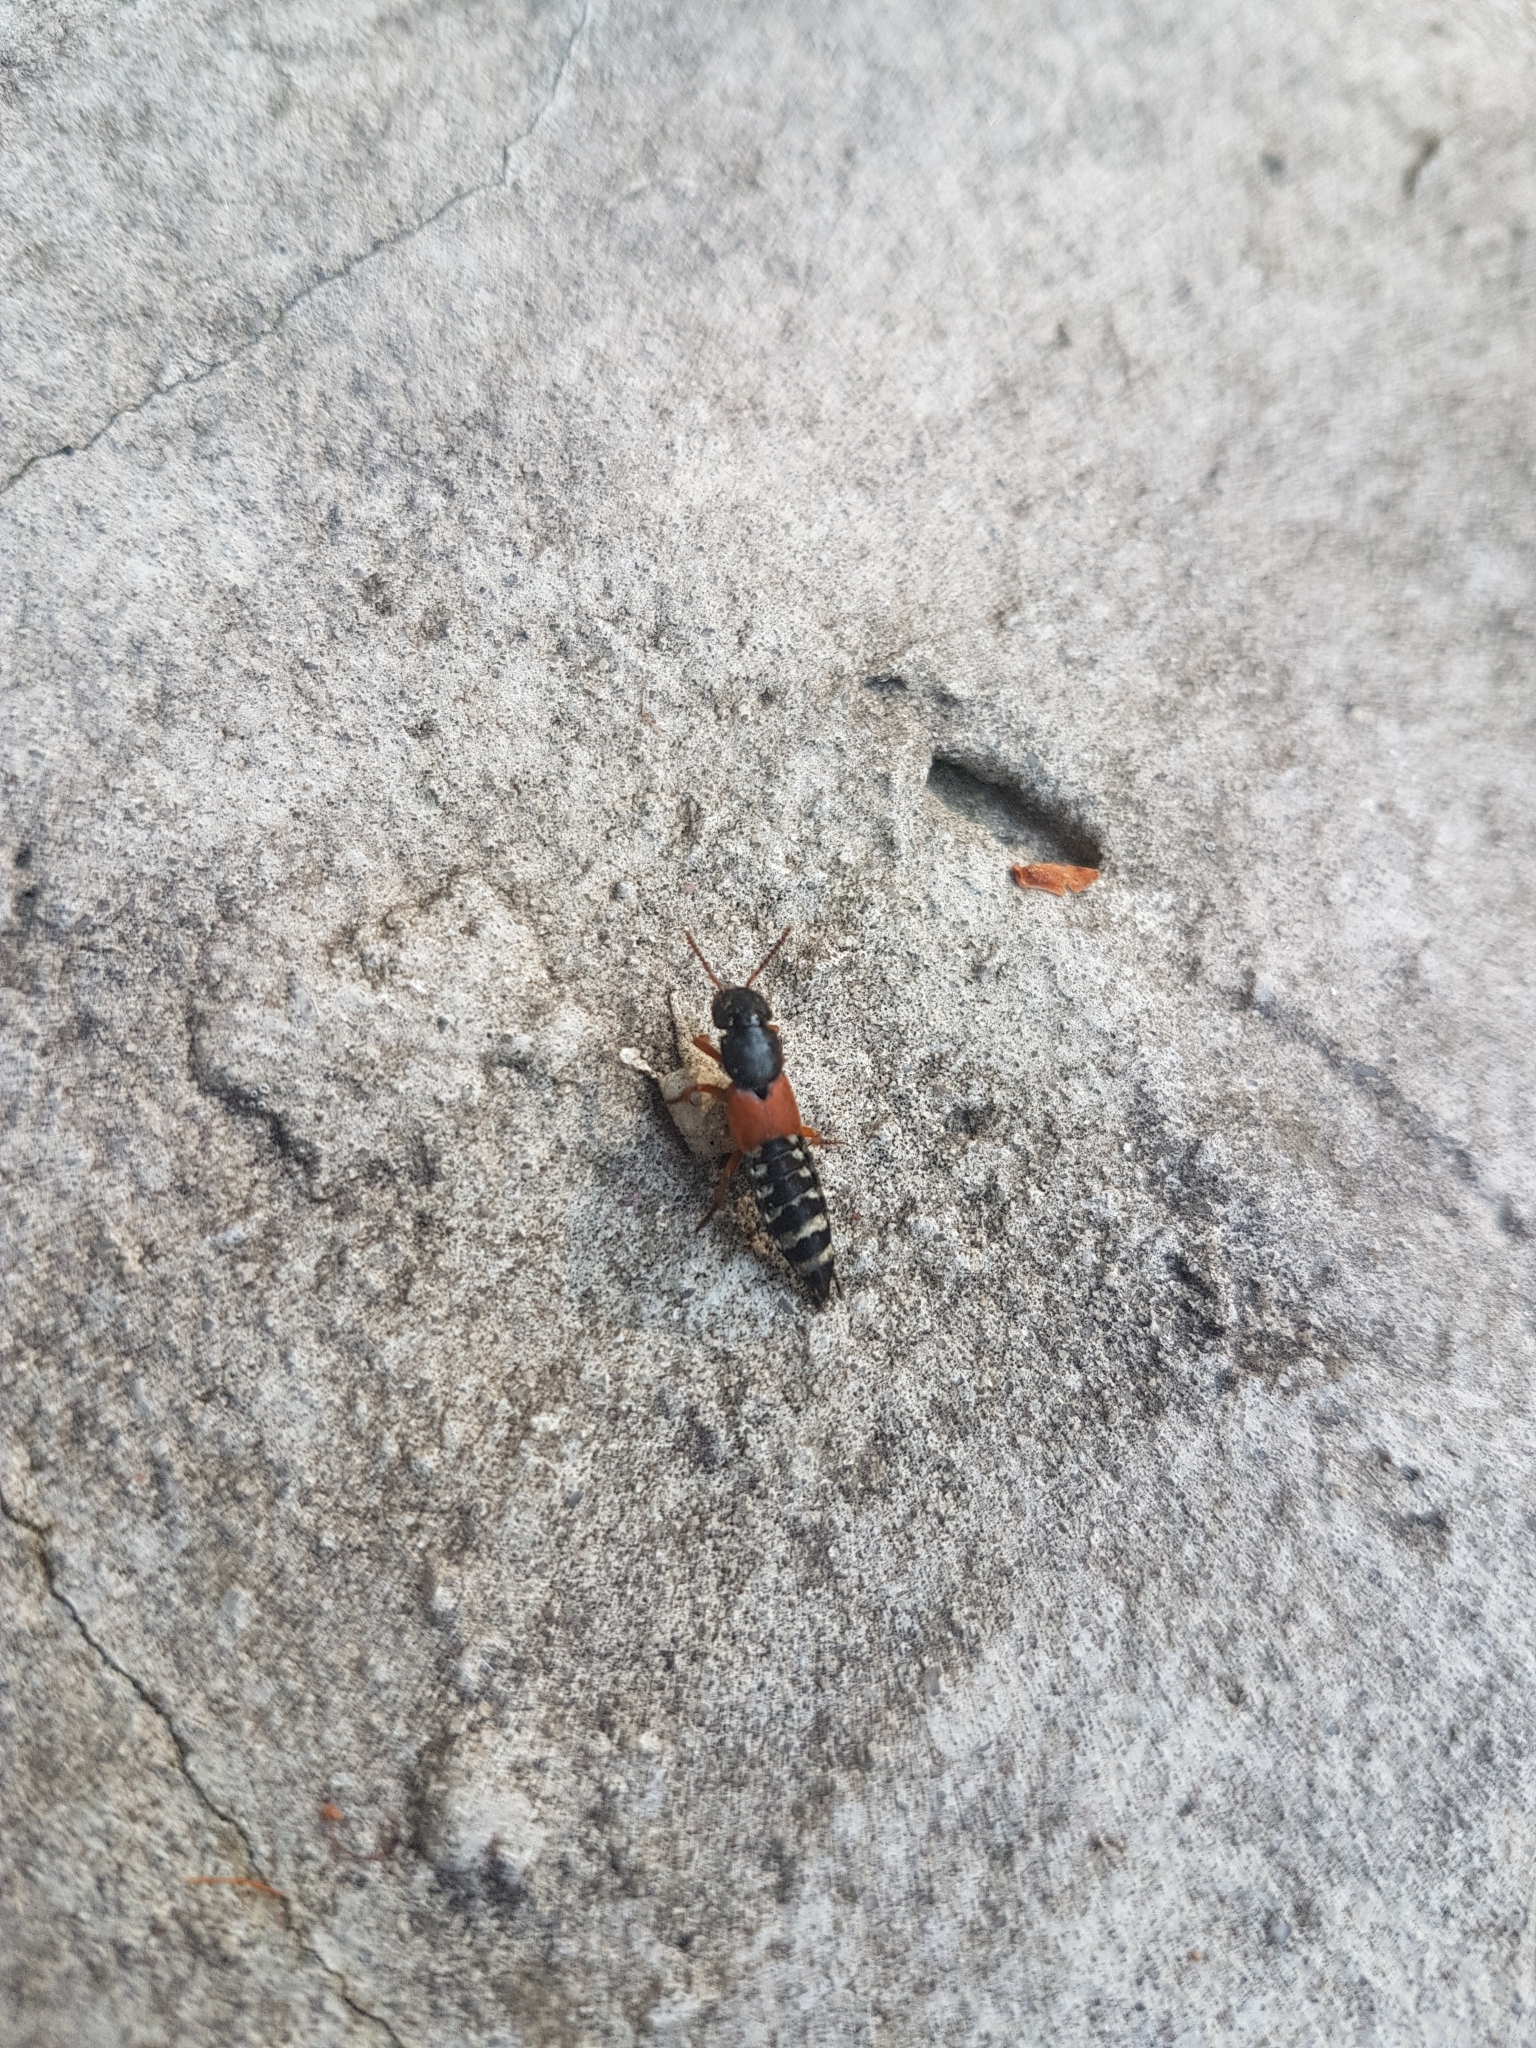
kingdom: Animalia
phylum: Arthropoda
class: Insecta
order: Coleoptera
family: Staphylinidae
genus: Platydracus
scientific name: Platydracus stercorarius
